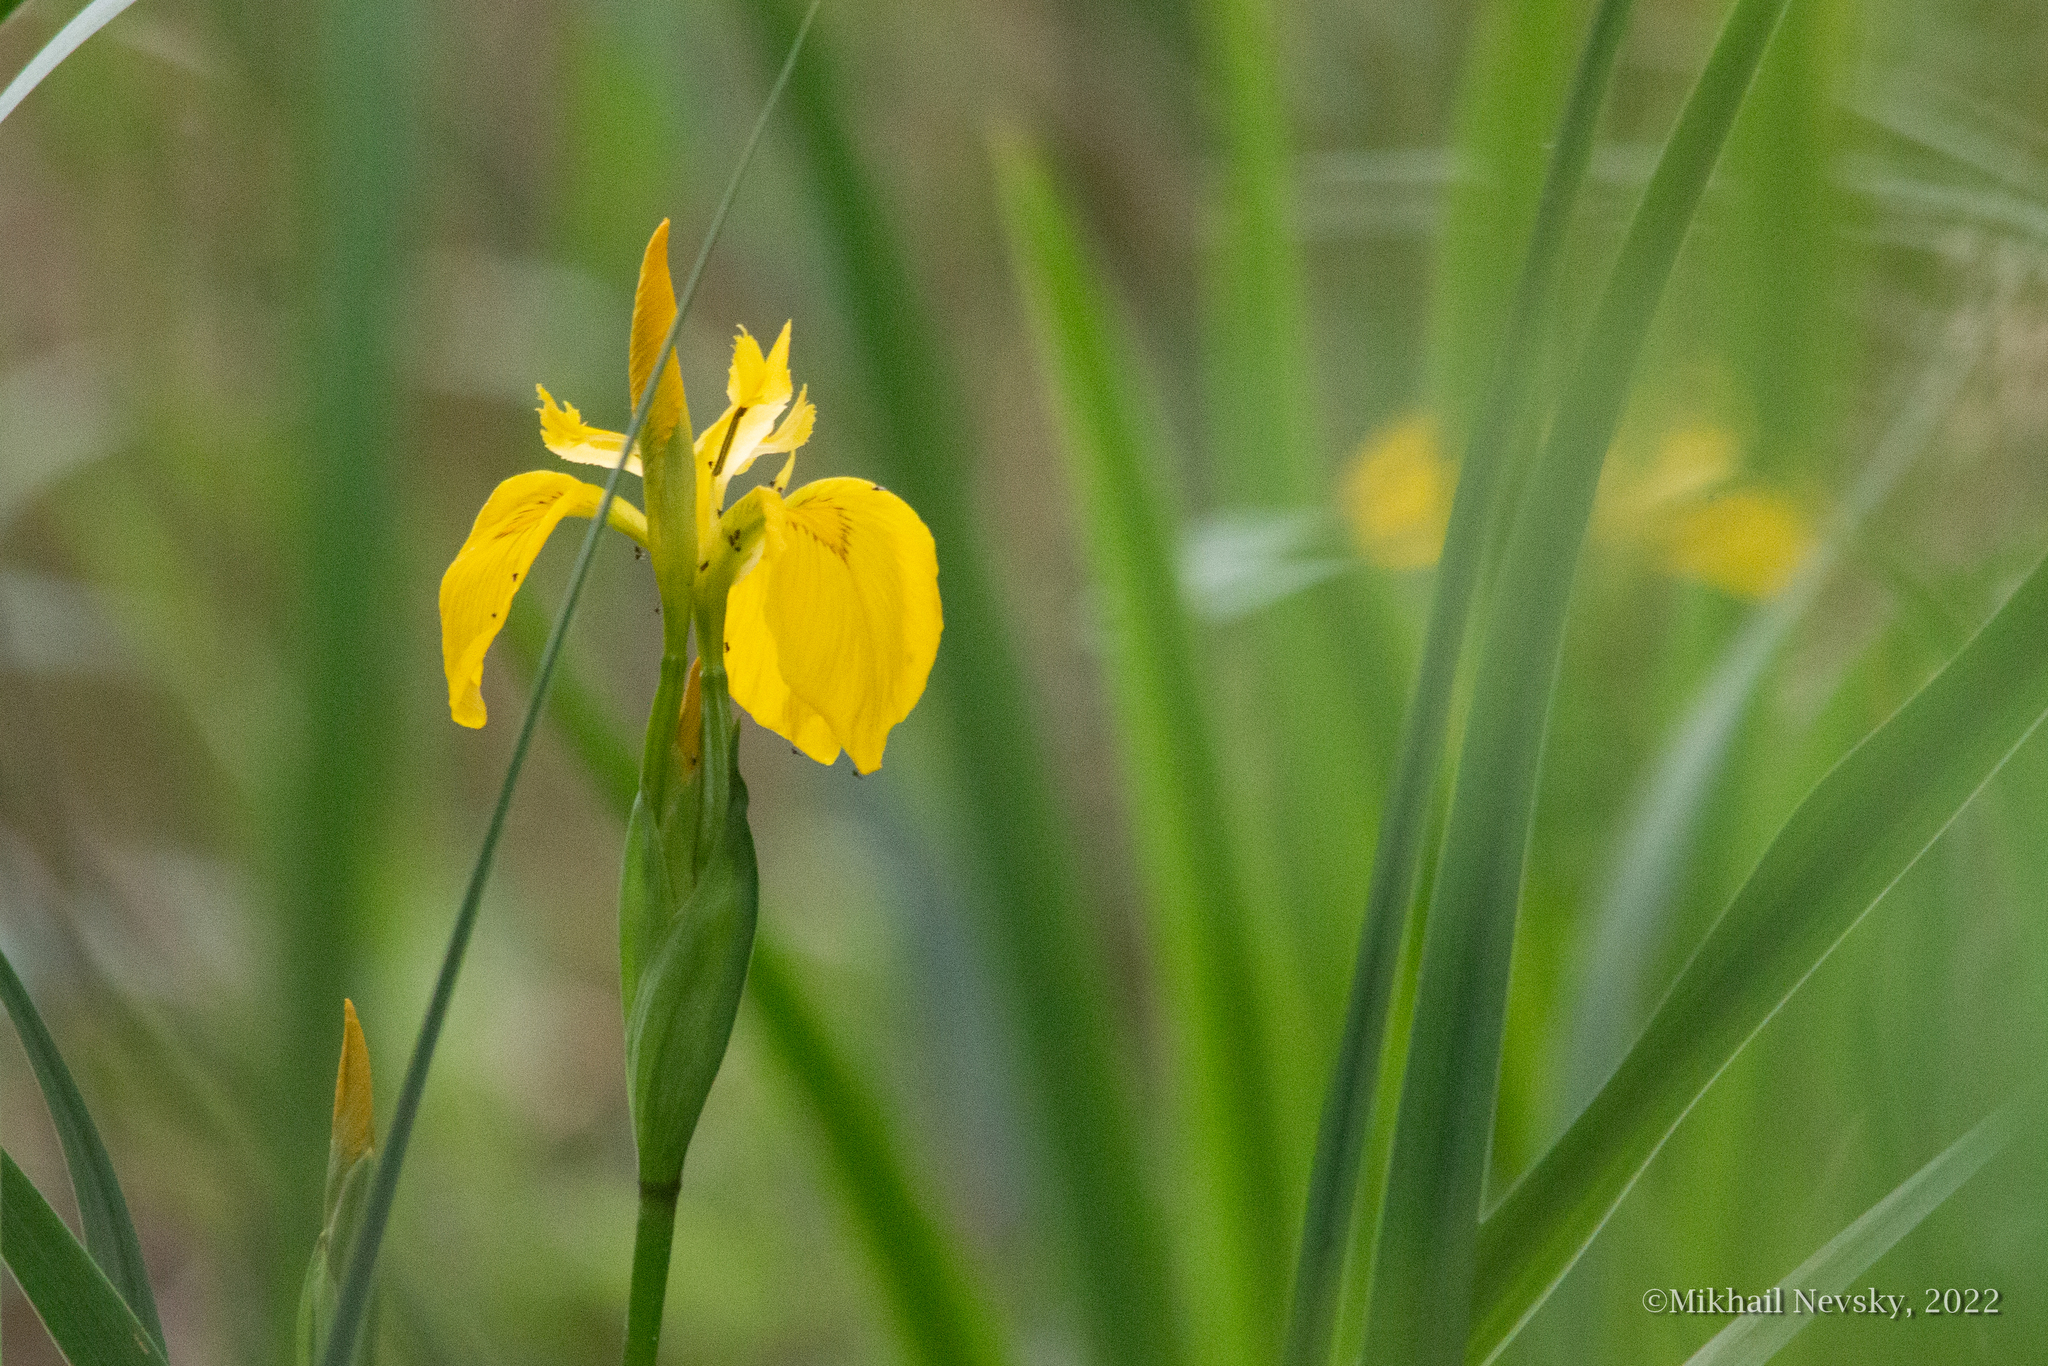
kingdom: Plantae
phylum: Tracheophyta
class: Liliopsida
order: Asparagales
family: Iridaceae
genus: Iris
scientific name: Iris pseudacorus
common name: Yellow flag
